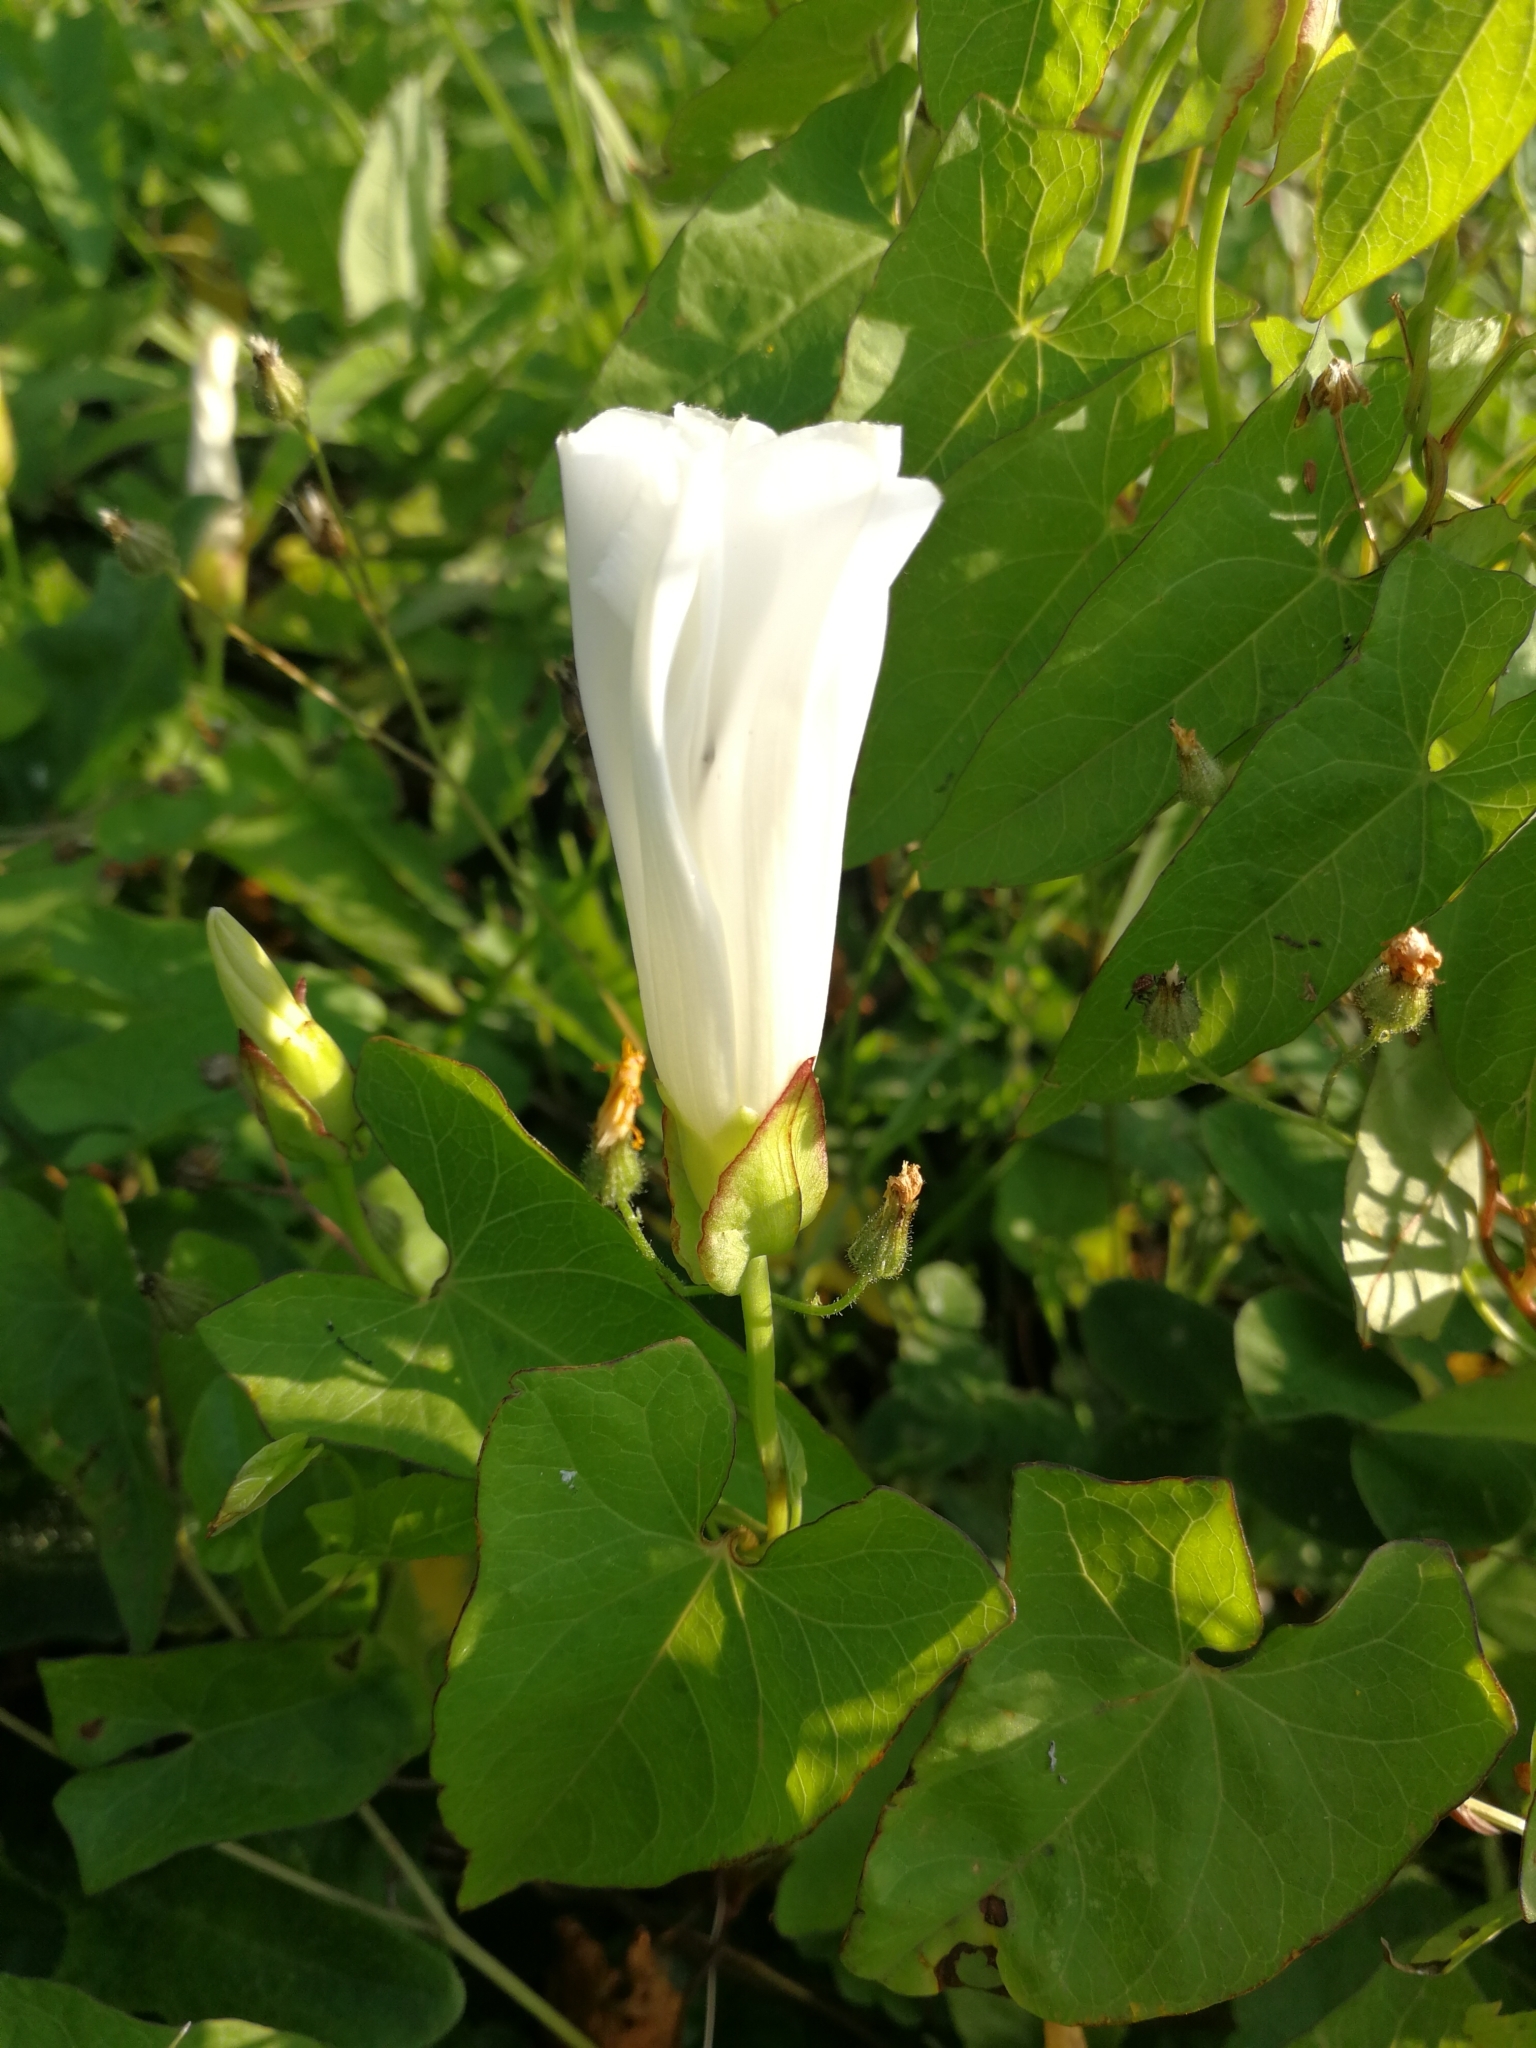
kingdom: Plantae
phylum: Tracheophyta
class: Magnoliopsida
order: Solanales
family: Convolvulaceae
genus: Calystegia
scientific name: Calystegia sepium
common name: Hedge bindweed
